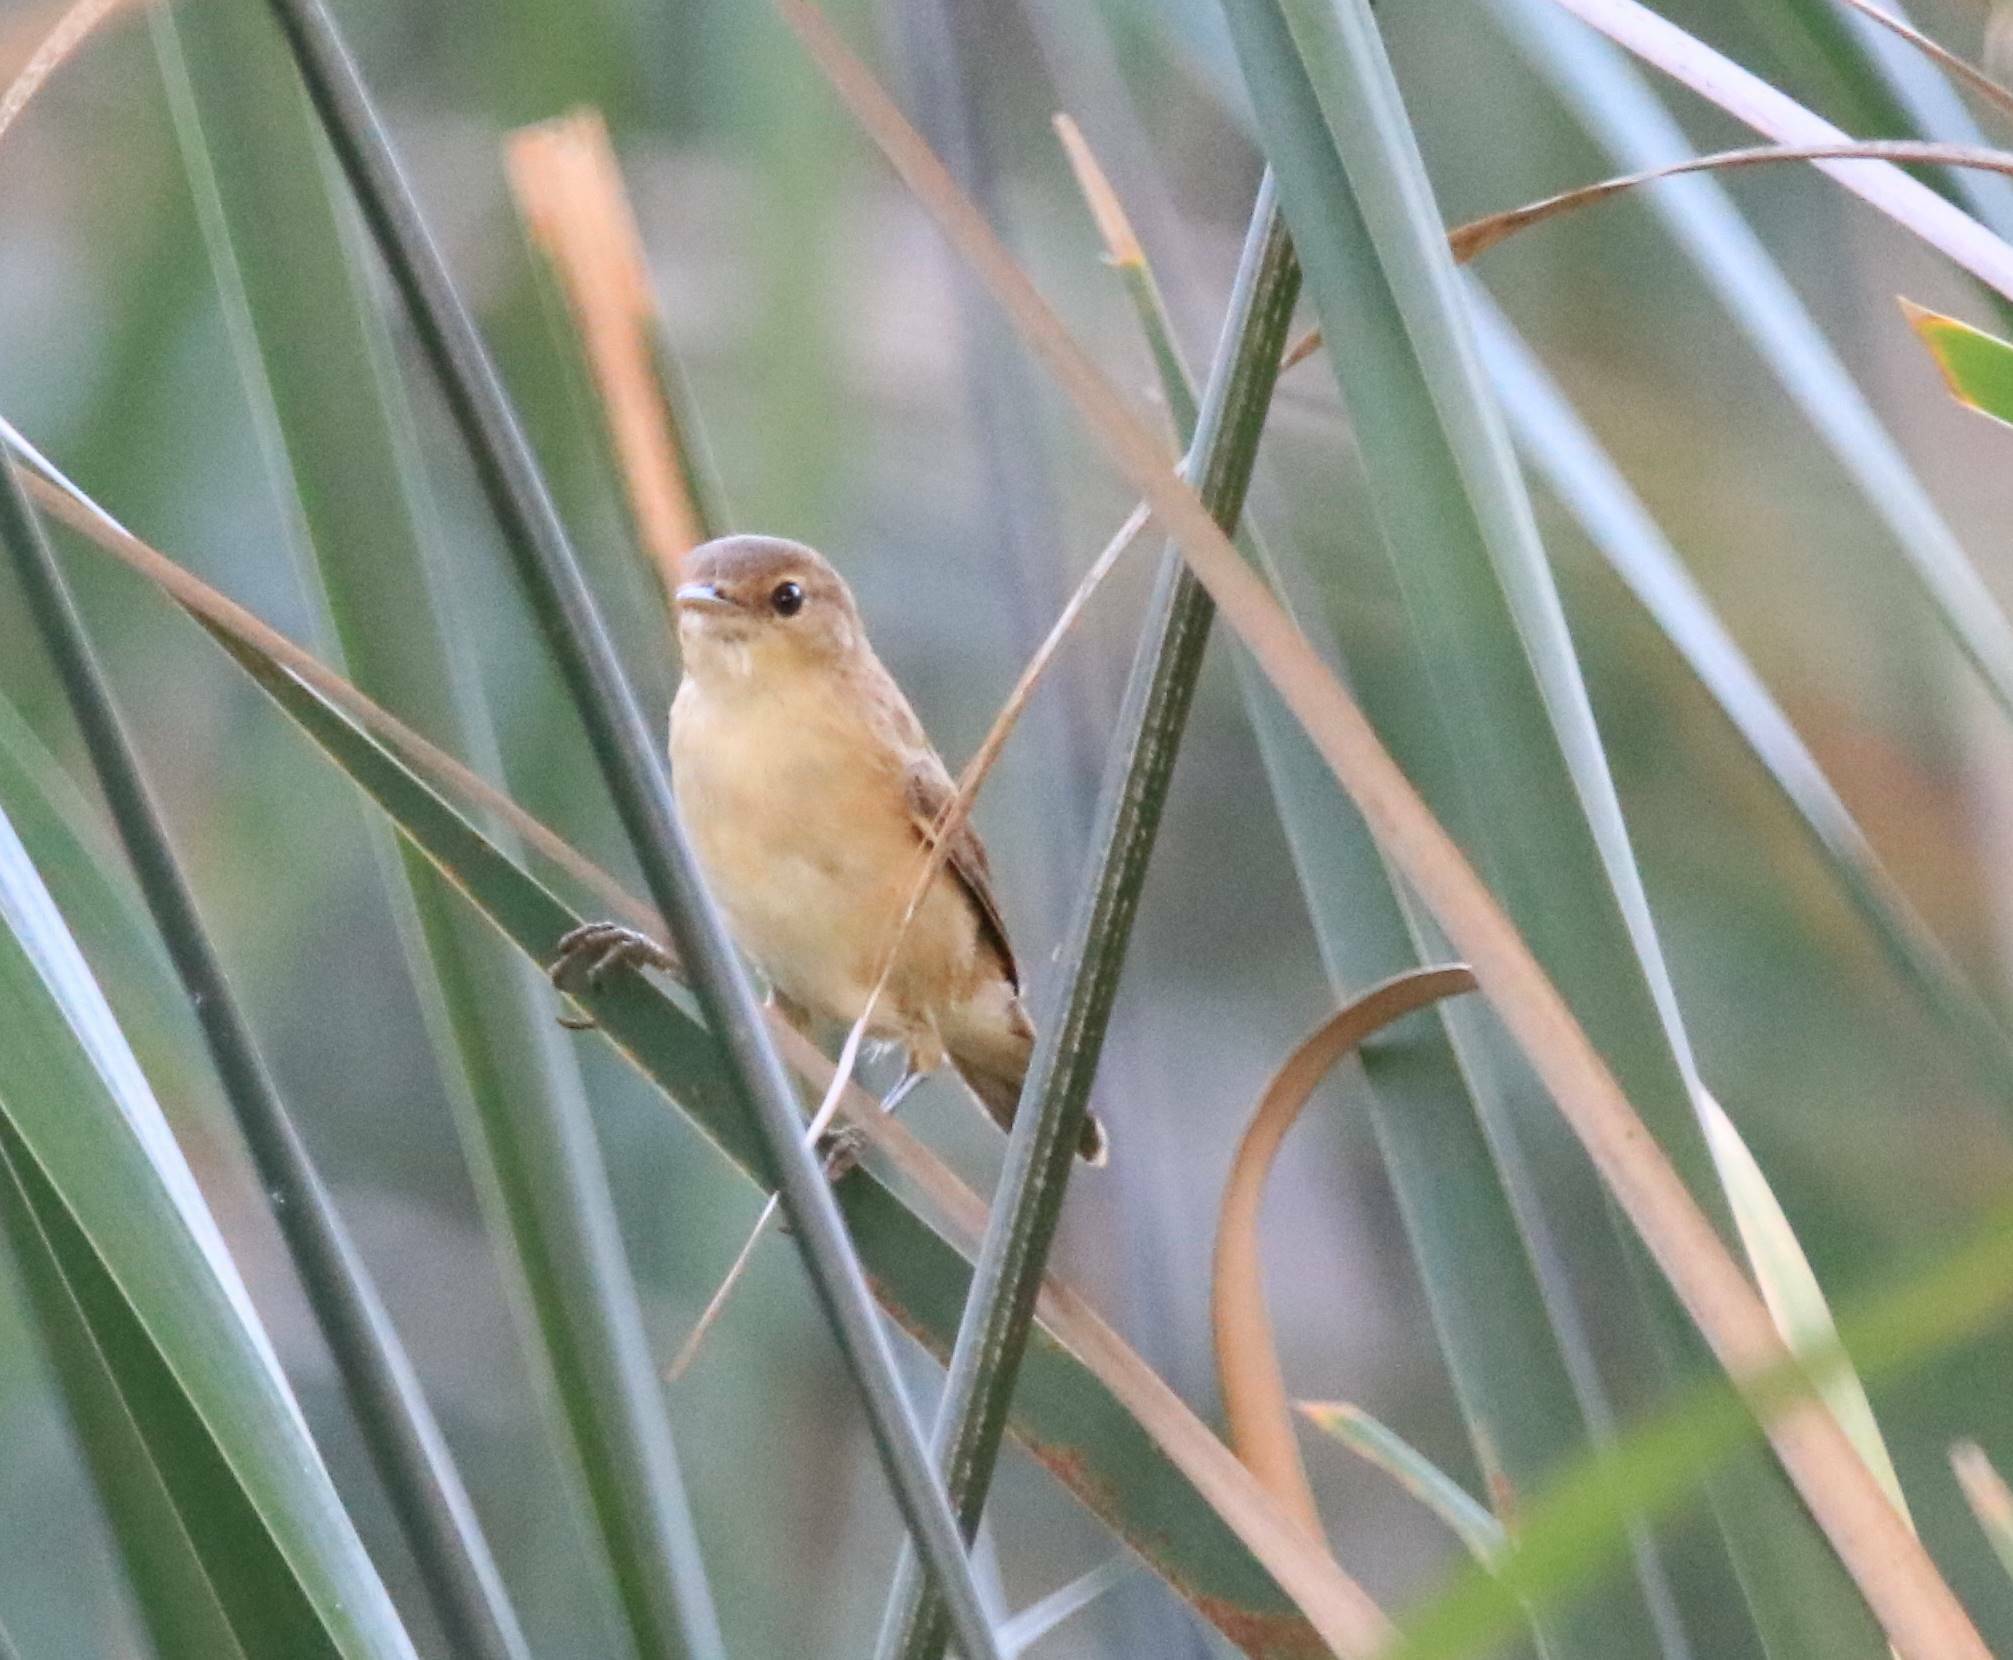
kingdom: Animalia
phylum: Chordata
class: Aves
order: Passeriformes
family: Acrocephalidae
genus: Acrocephalus
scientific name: Acrocephalus scirpaceus
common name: Eurasian reed warbler
